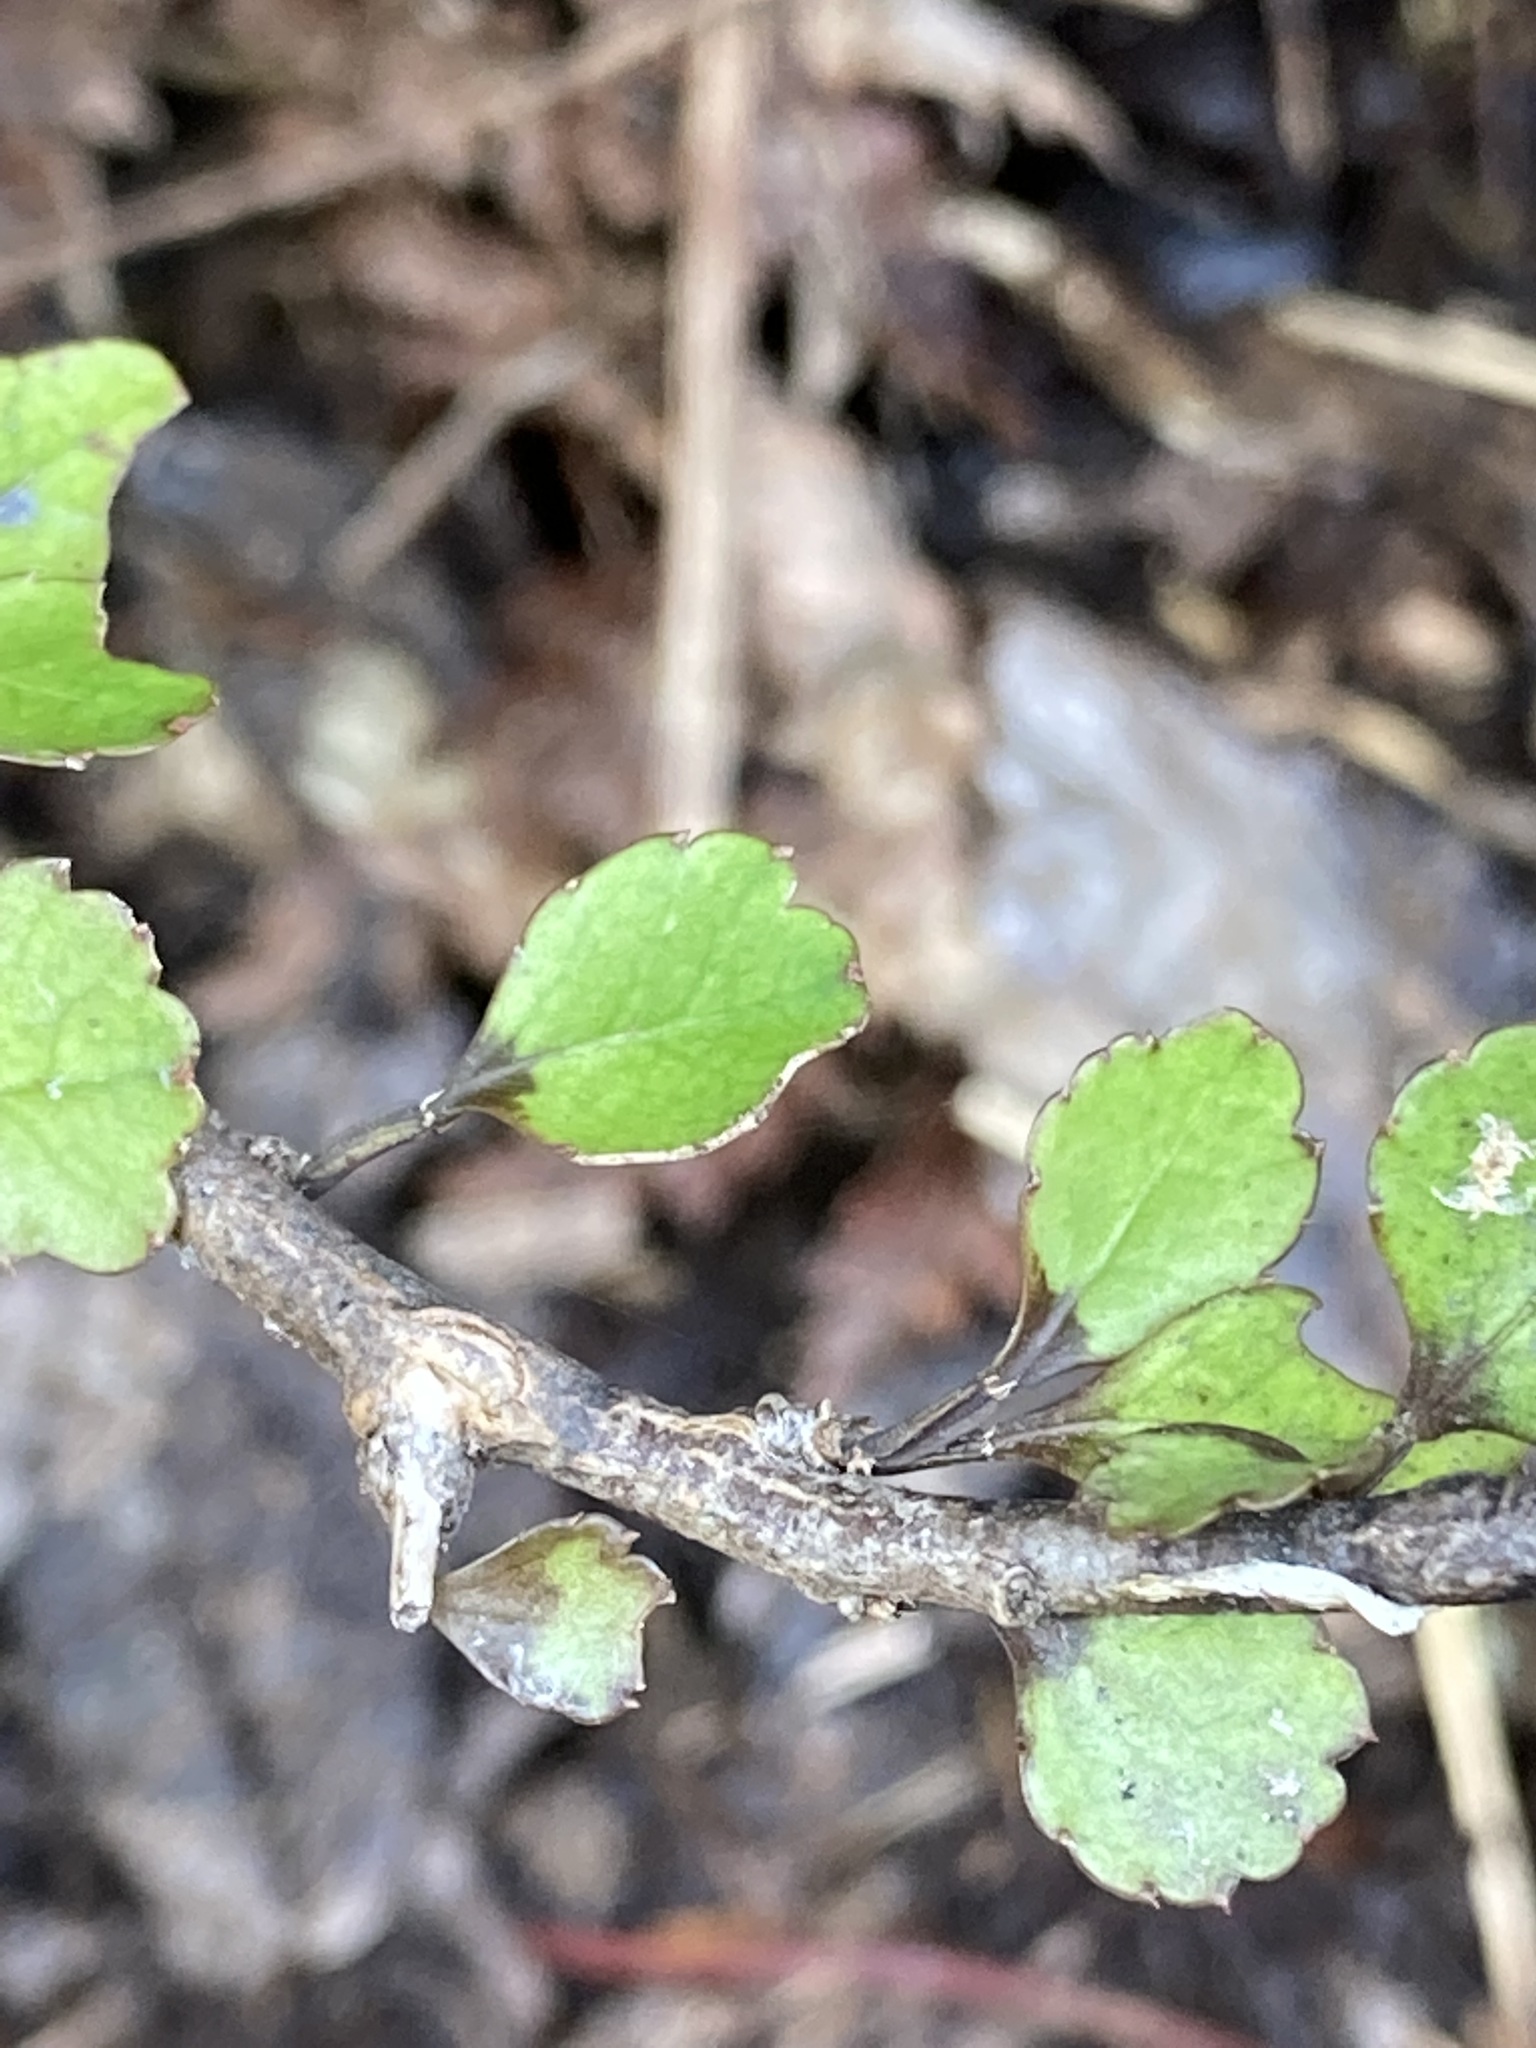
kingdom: Plantae
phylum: Tracheophyta
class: Magnoliopsida
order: Apiales
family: Araliaceae
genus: Raukaua
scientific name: Raukaua anomalus
